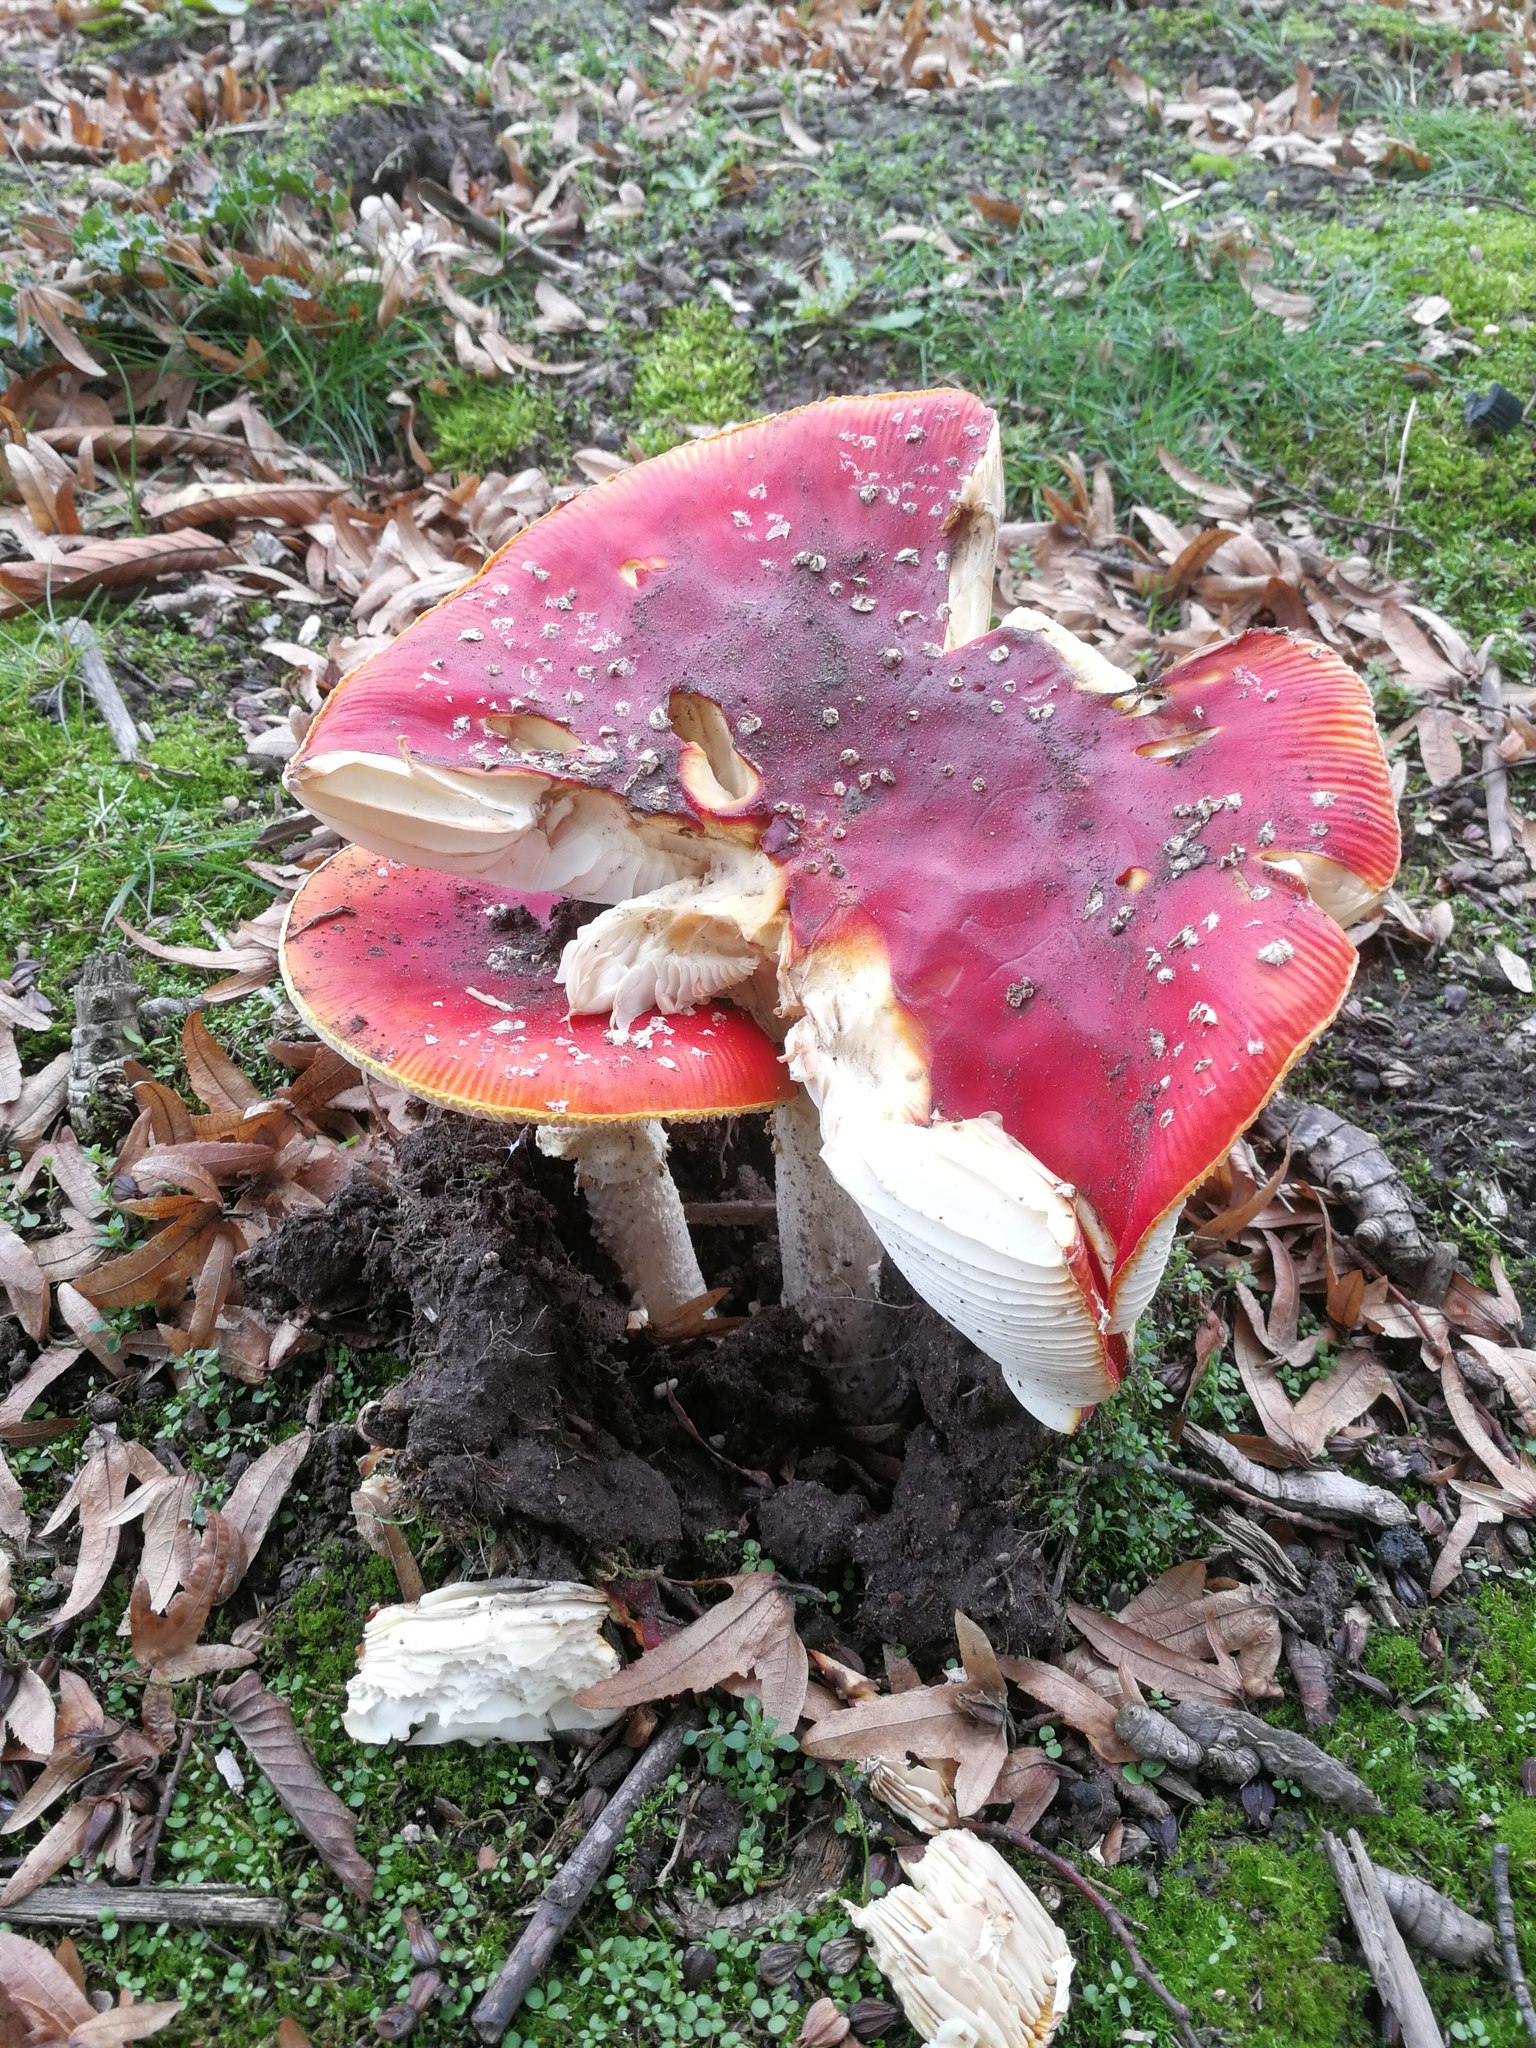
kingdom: Fungi
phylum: Basidiomycota
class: Agaricomycetes
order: Agaricales
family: Amanitaceae
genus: Amanita
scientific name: Amanita muscaria
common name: Fly agaric
